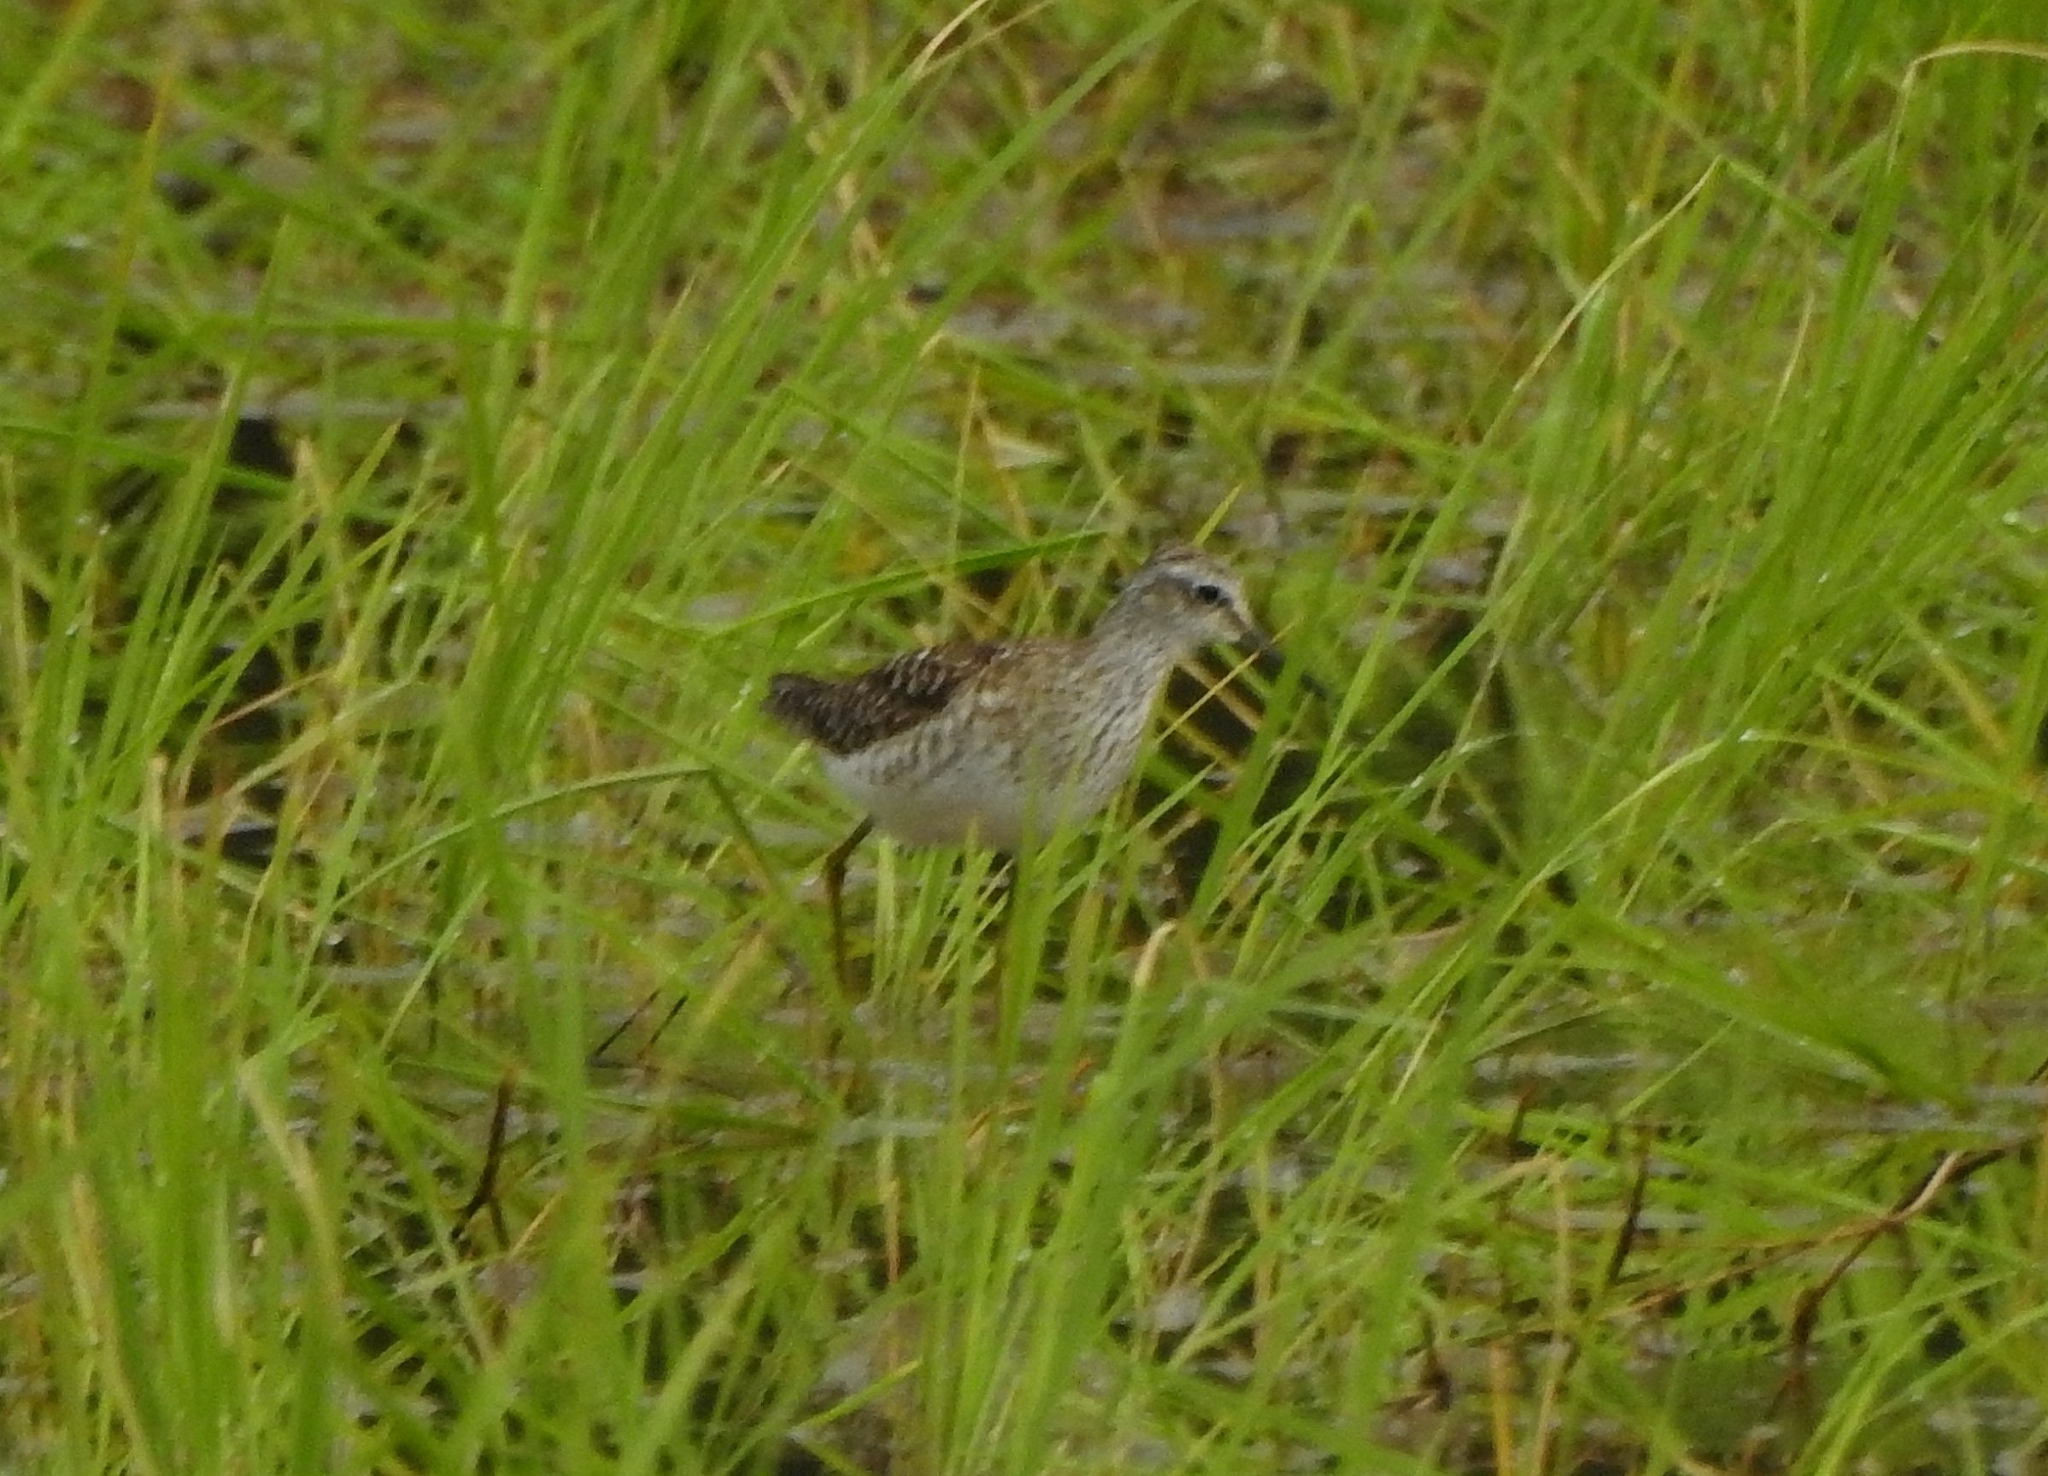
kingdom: Animalia
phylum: Chordata
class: Aves
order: Charadriiformes
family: Scolopacidae
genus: Tringa
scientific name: Tringa glareola
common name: Wood sandpiper
